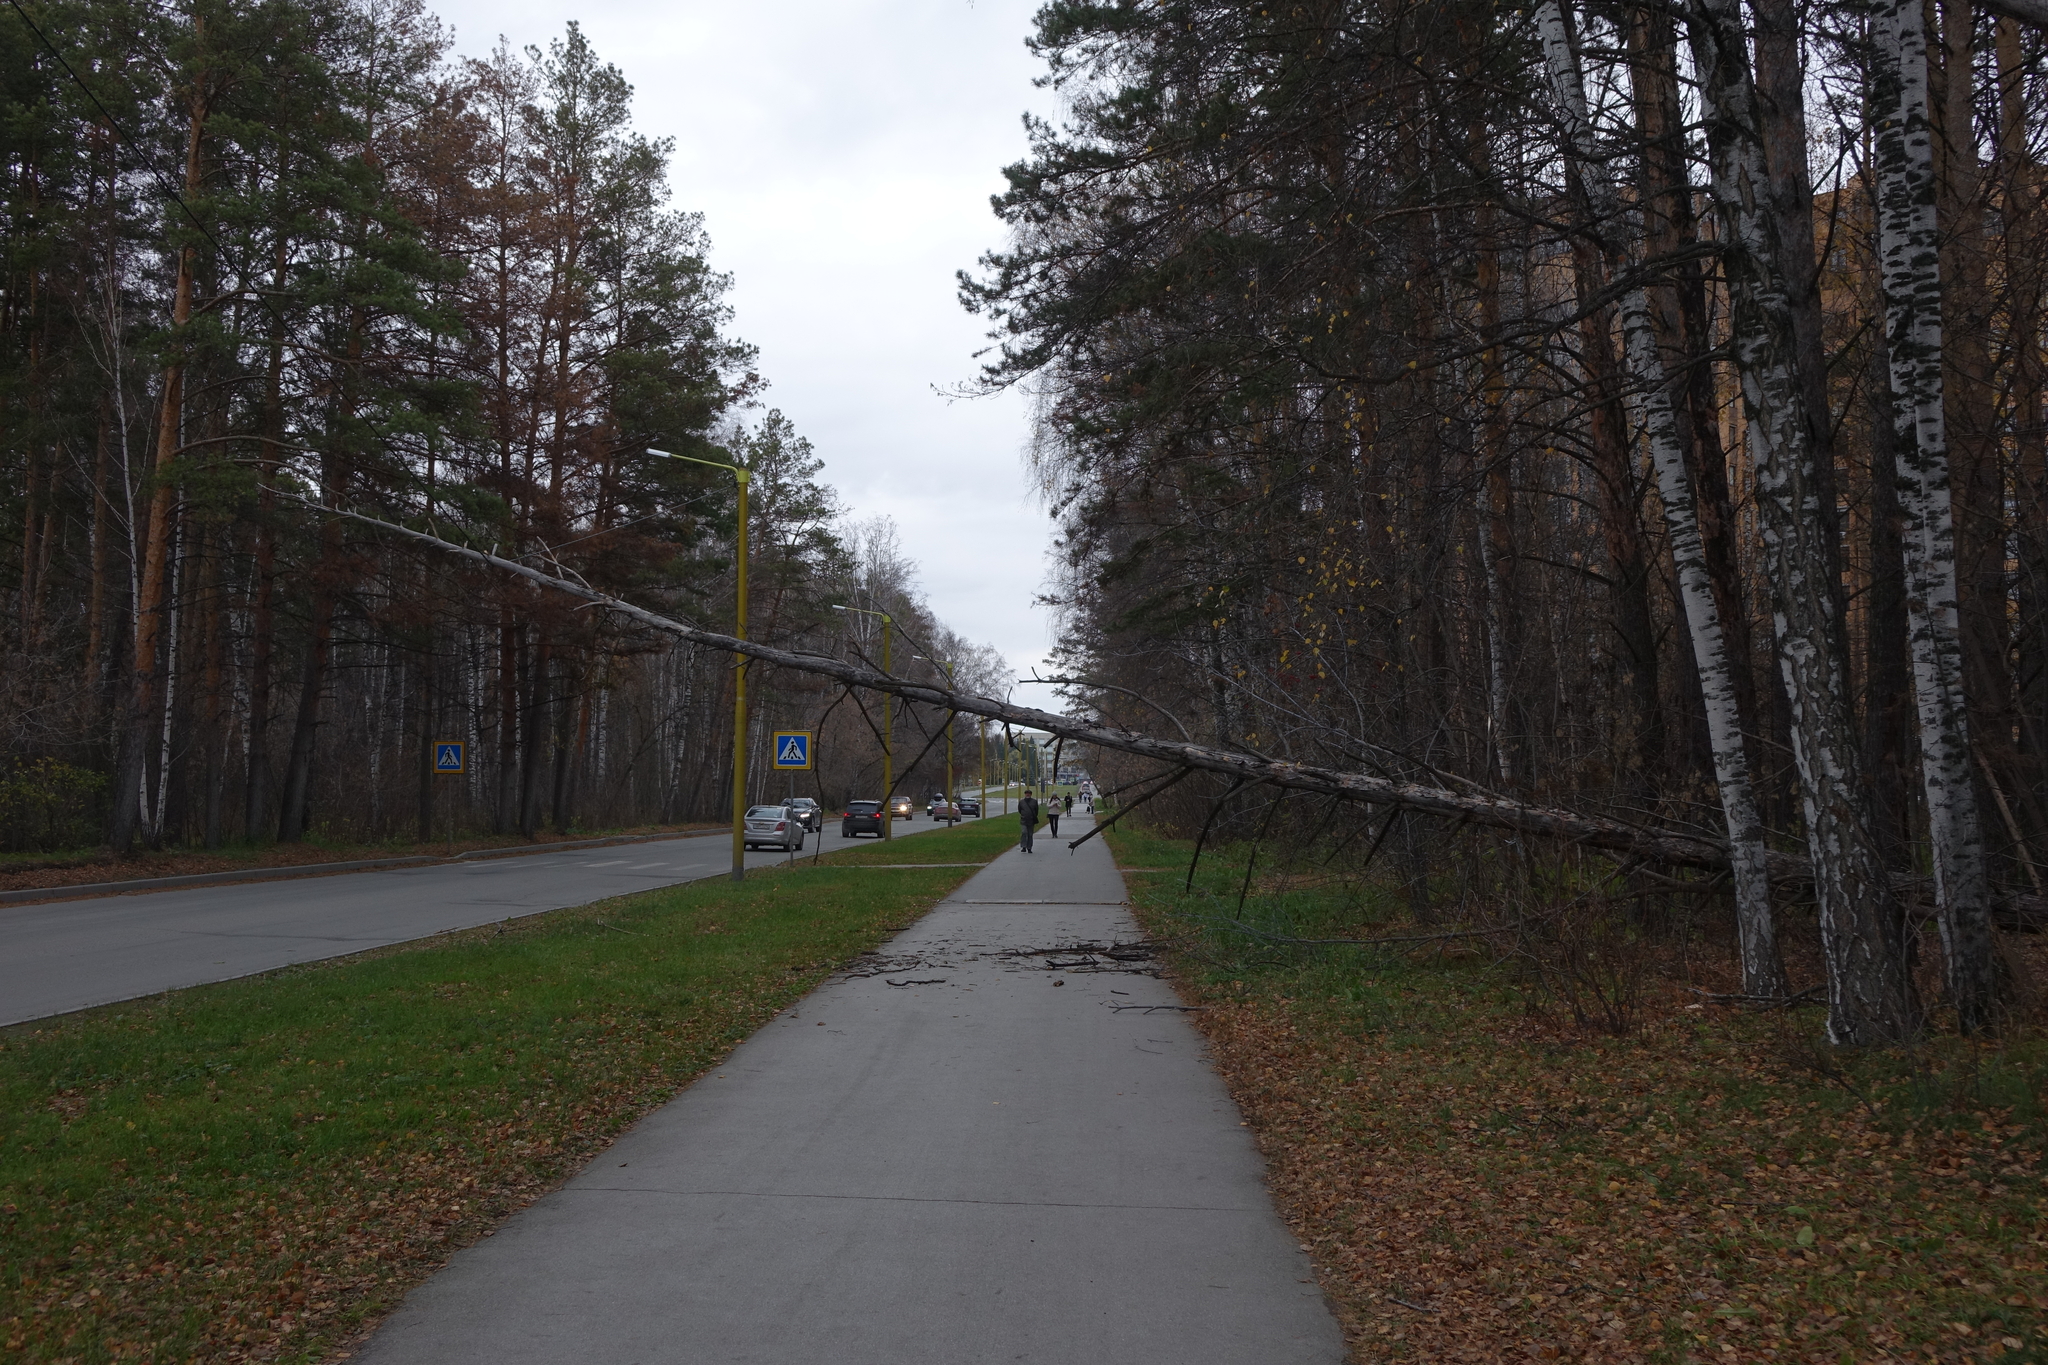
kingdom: Plantae
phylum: Tracheophyta
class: Pinopsida
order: Pinales
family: Pinaceae
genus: Pinus
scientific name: Pinus sylvestris
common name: Scots pine
